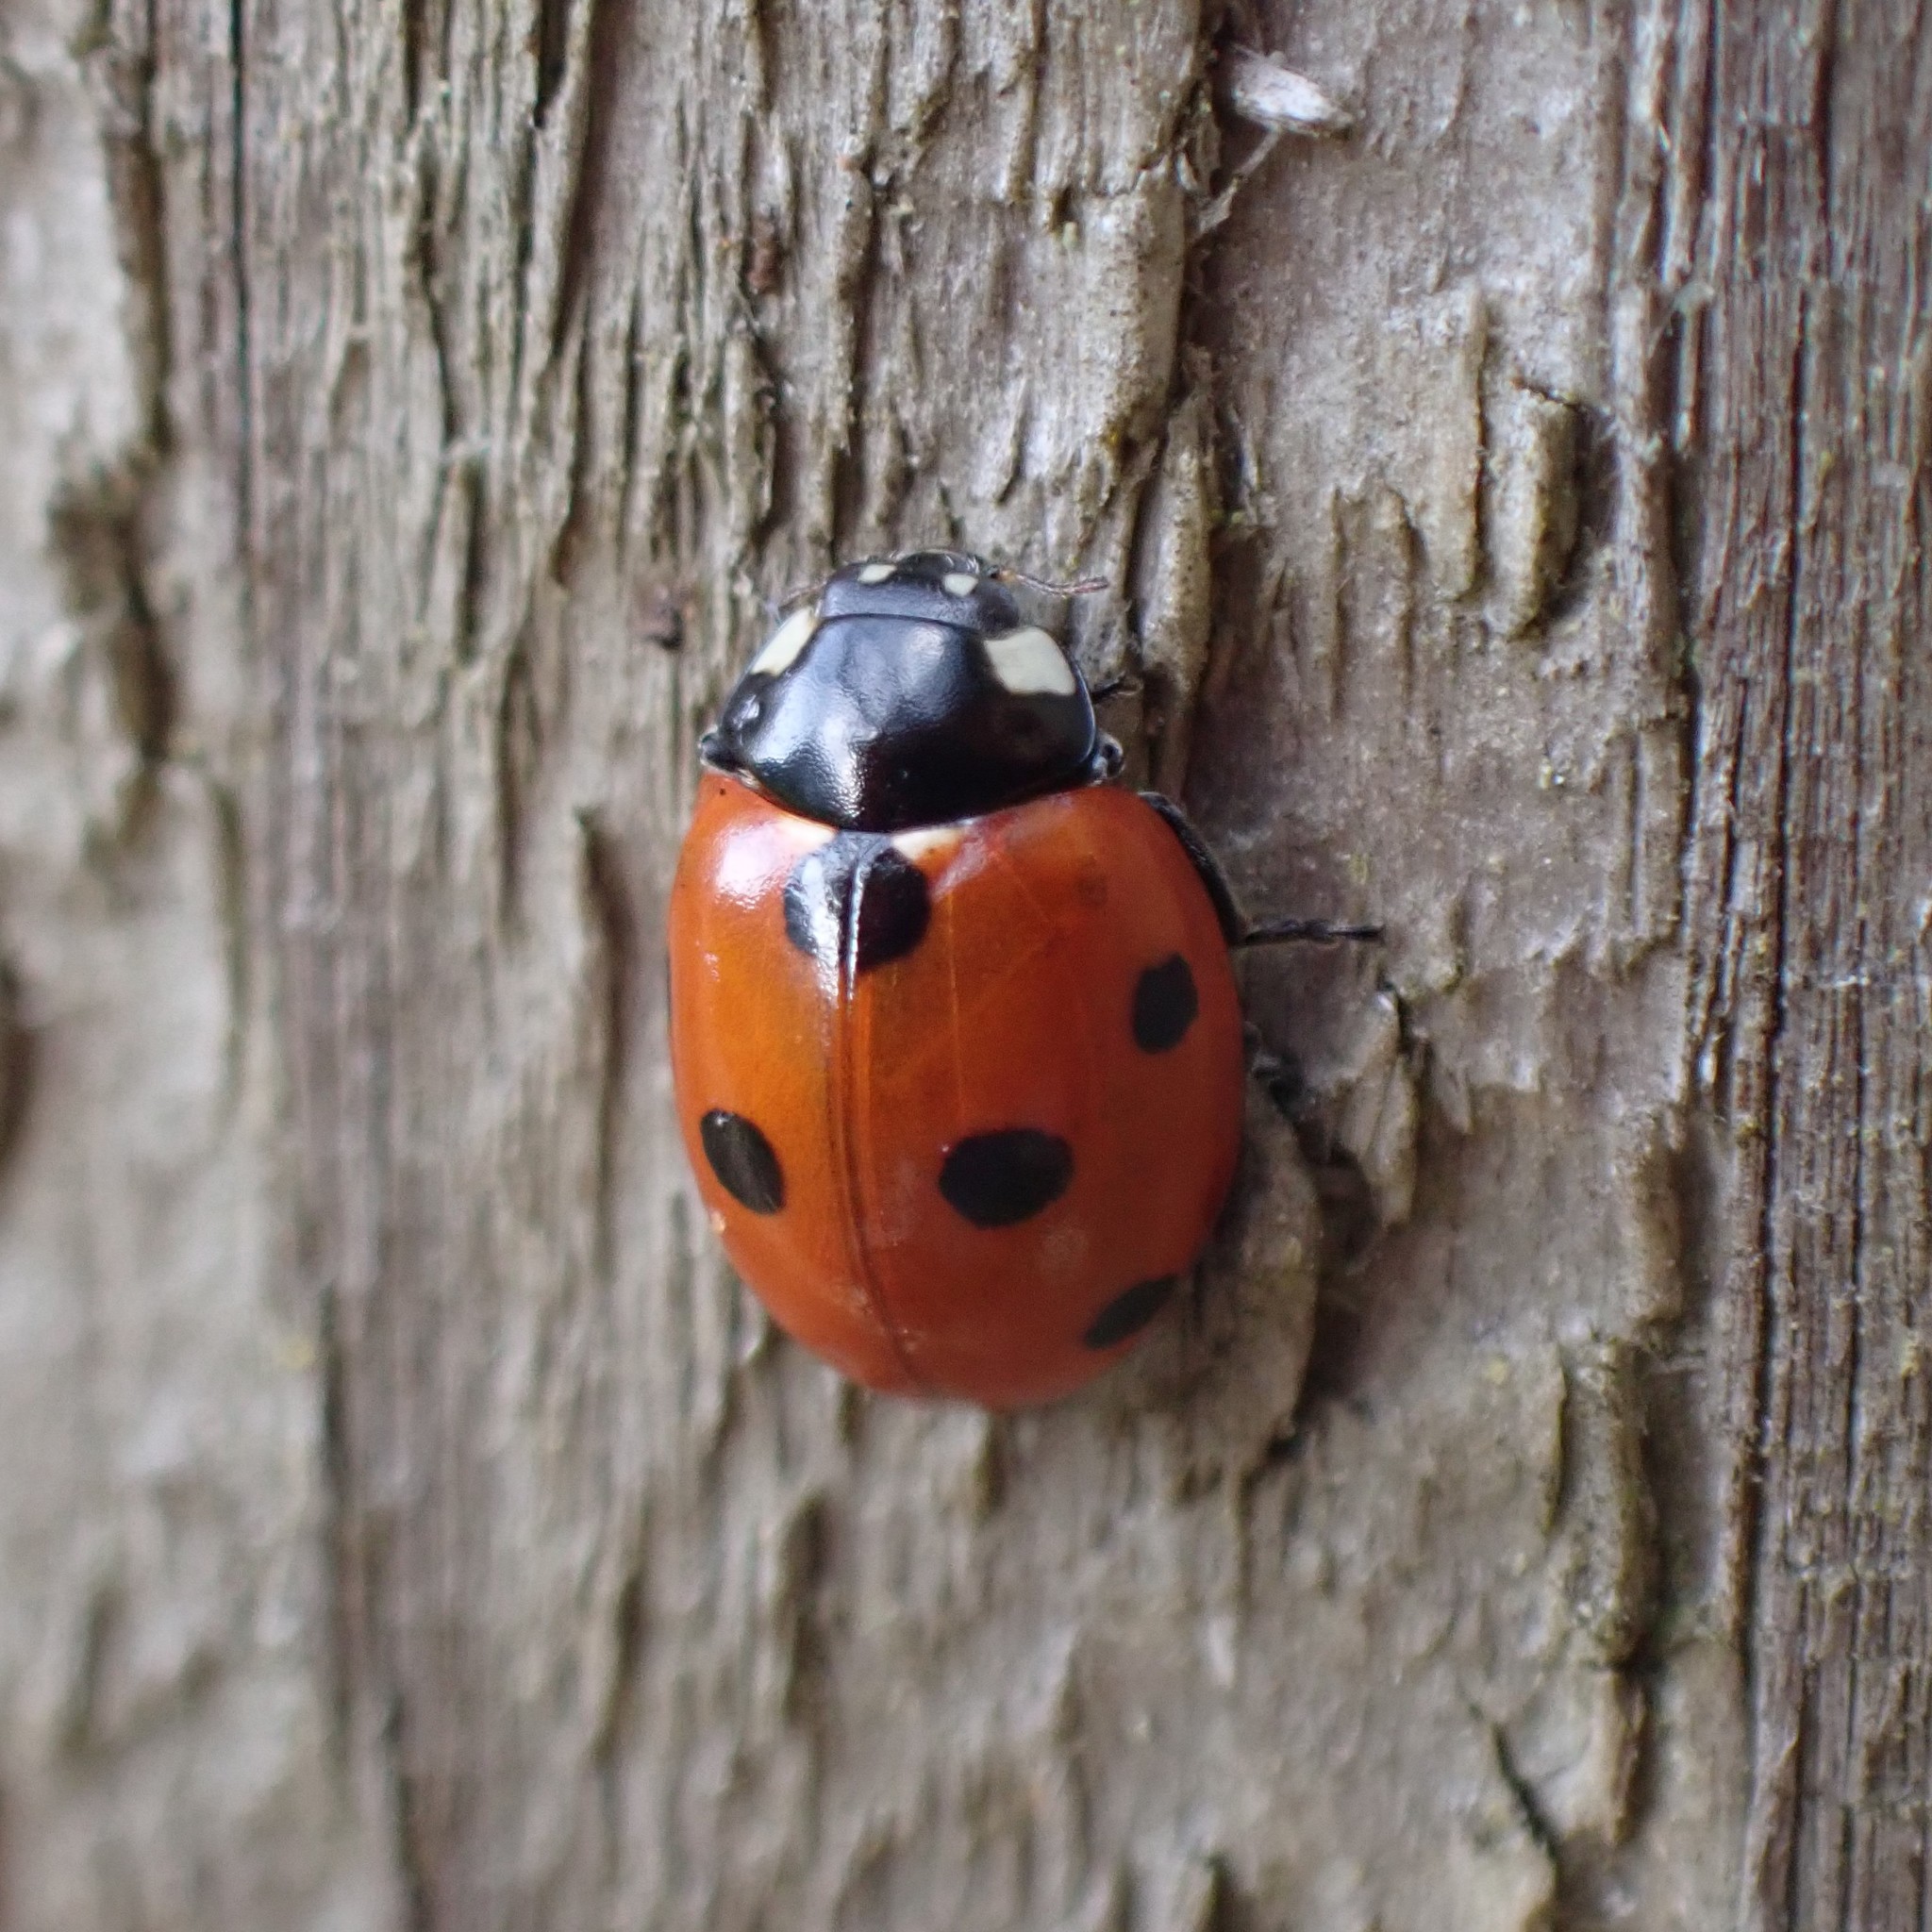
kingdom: Animalia
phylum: Arthropoda
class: Insecta
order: Coleoptera
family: Coccinellidae
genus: Coccinella
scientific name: Coccinella septempunctata
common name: Sevenspotted lady beetle
